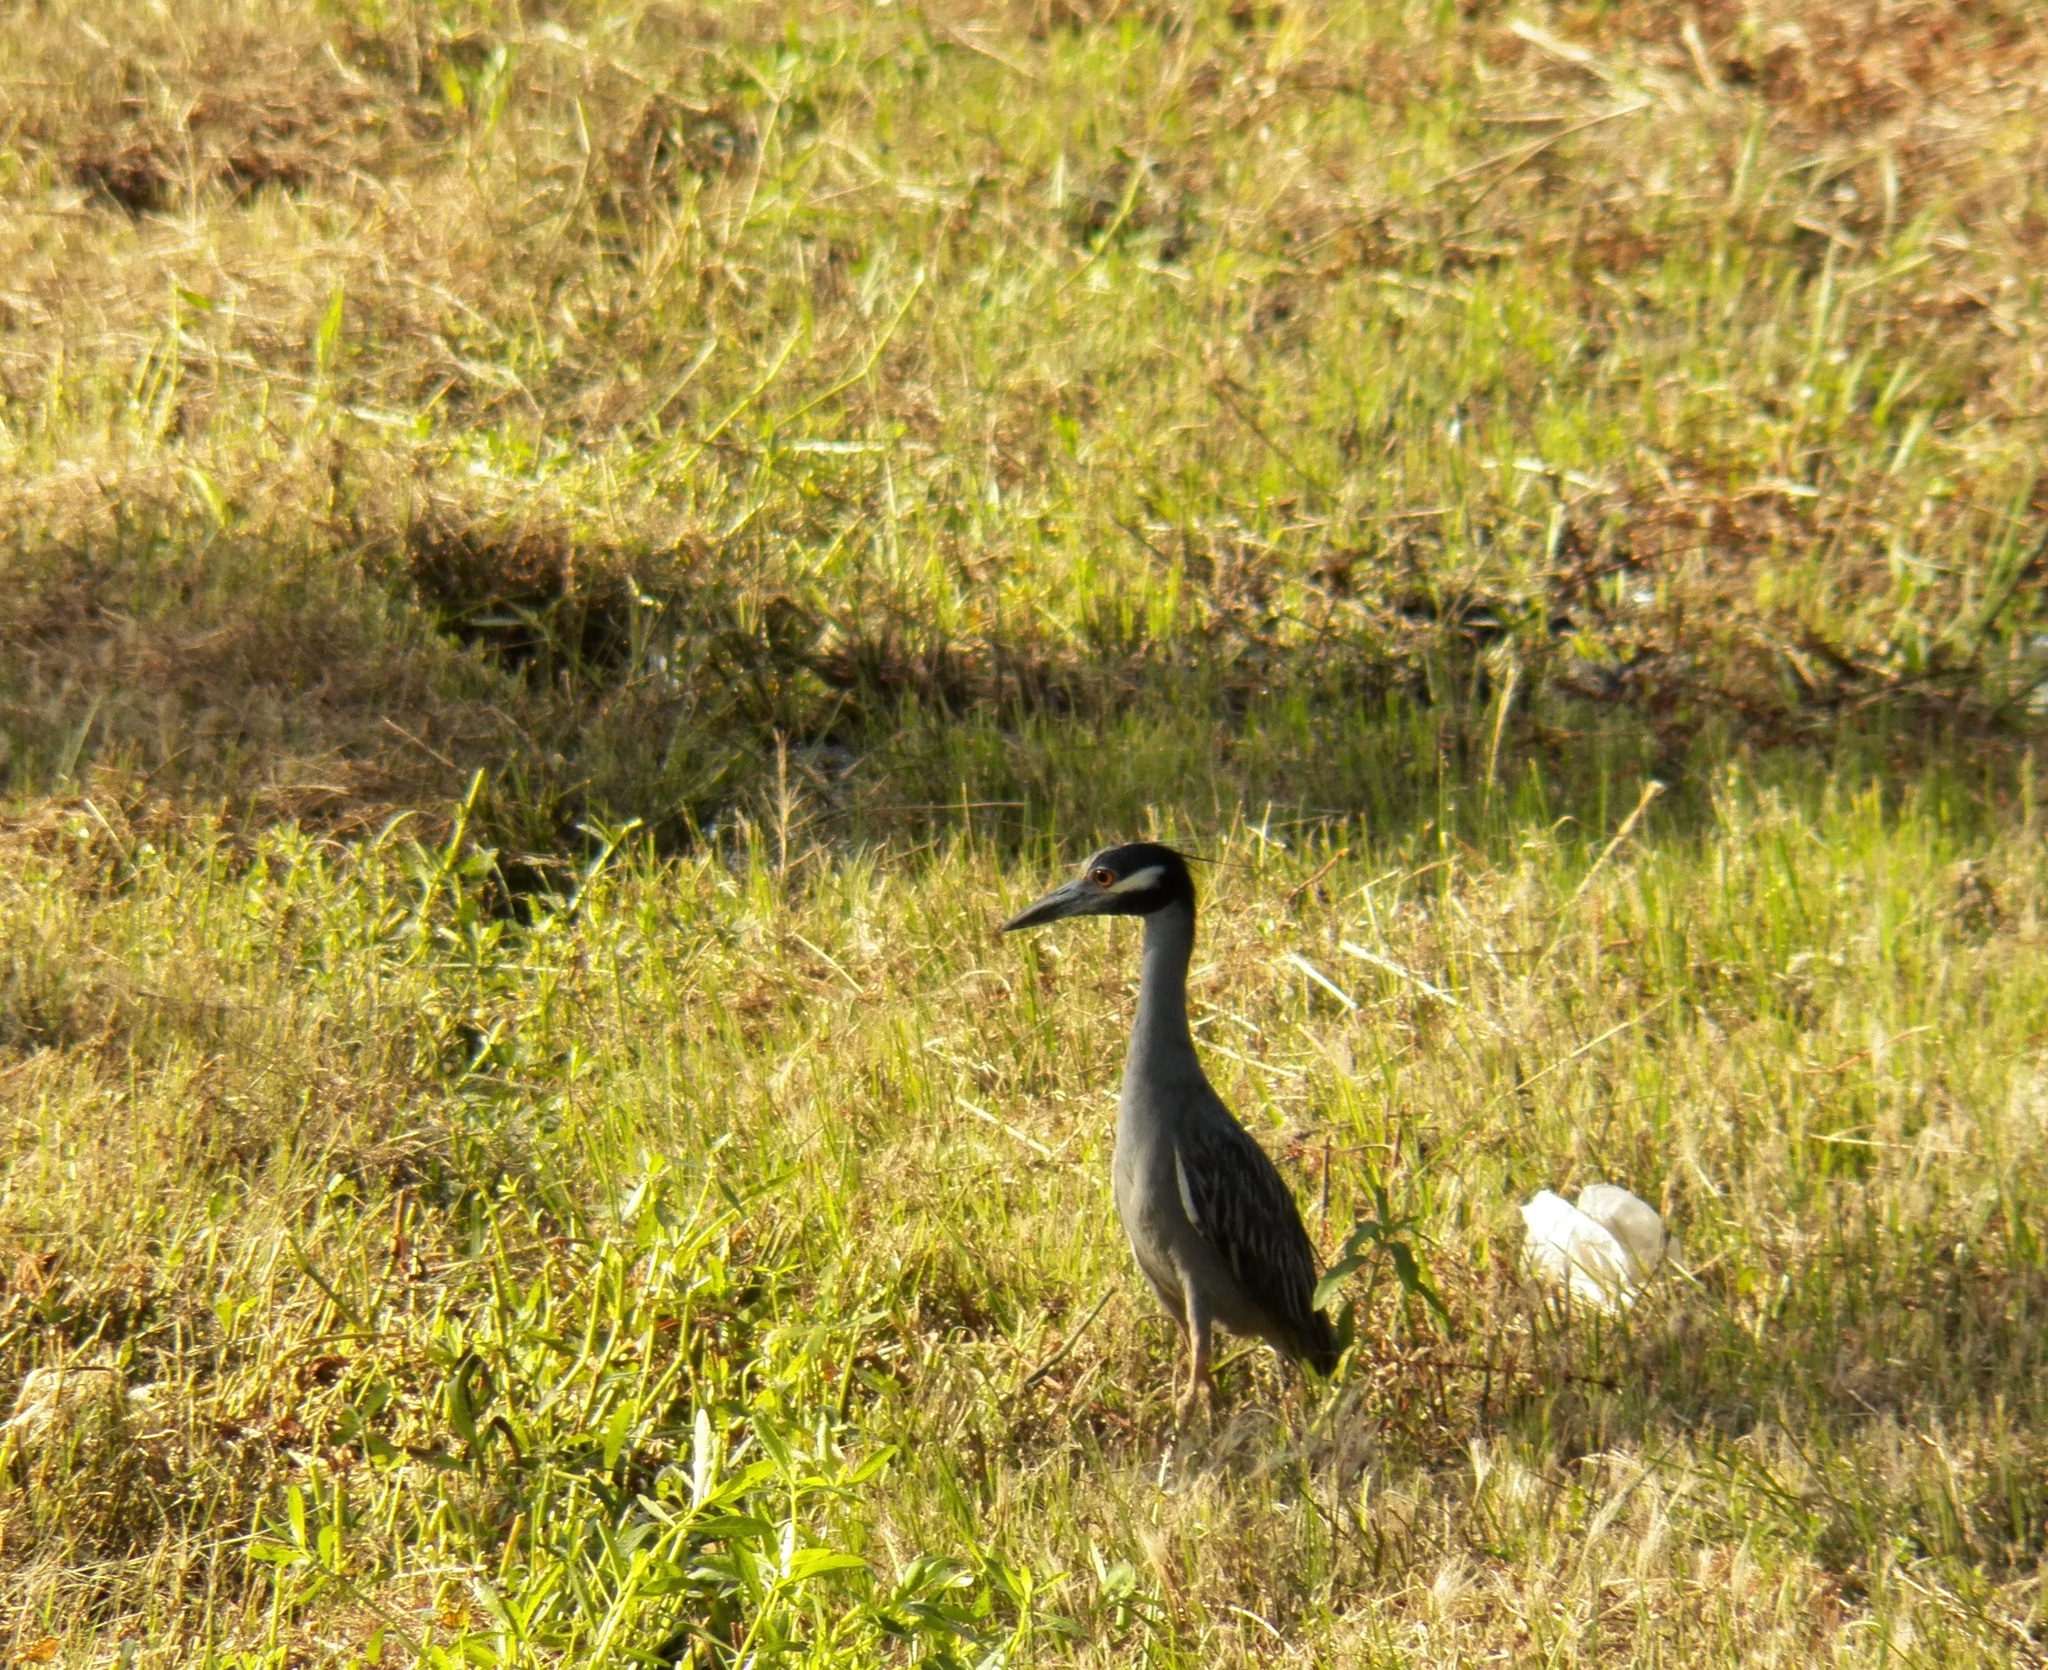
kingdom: Animalia
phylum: Chordata
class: Aves
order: Pelecaniformes
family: Ardeidae
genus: Nyctanassa
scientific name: Nyctanassa violacea
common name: Yellow-crowned night heron
